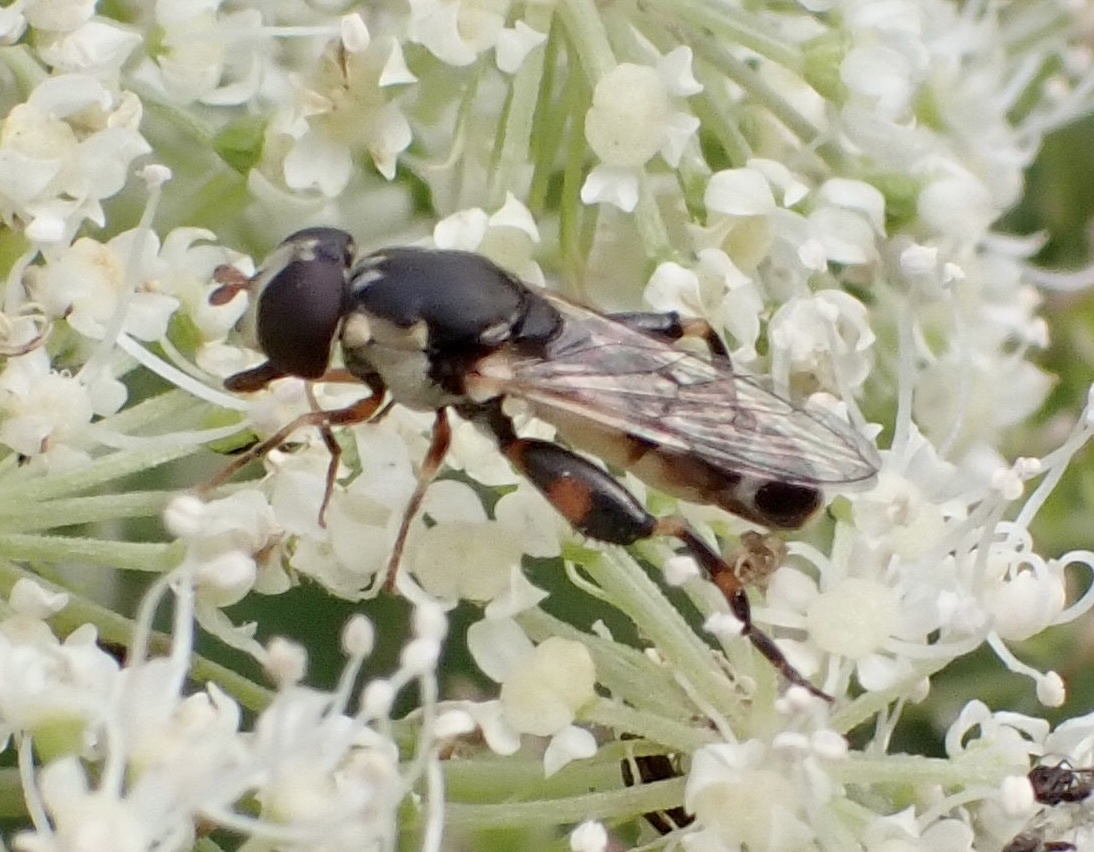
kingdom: Animalia
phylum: Arthropoda
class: Insecta
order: Diptera
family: Syrphidae
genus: Syritta
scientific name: Syritta pipiens
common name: Hover fly
